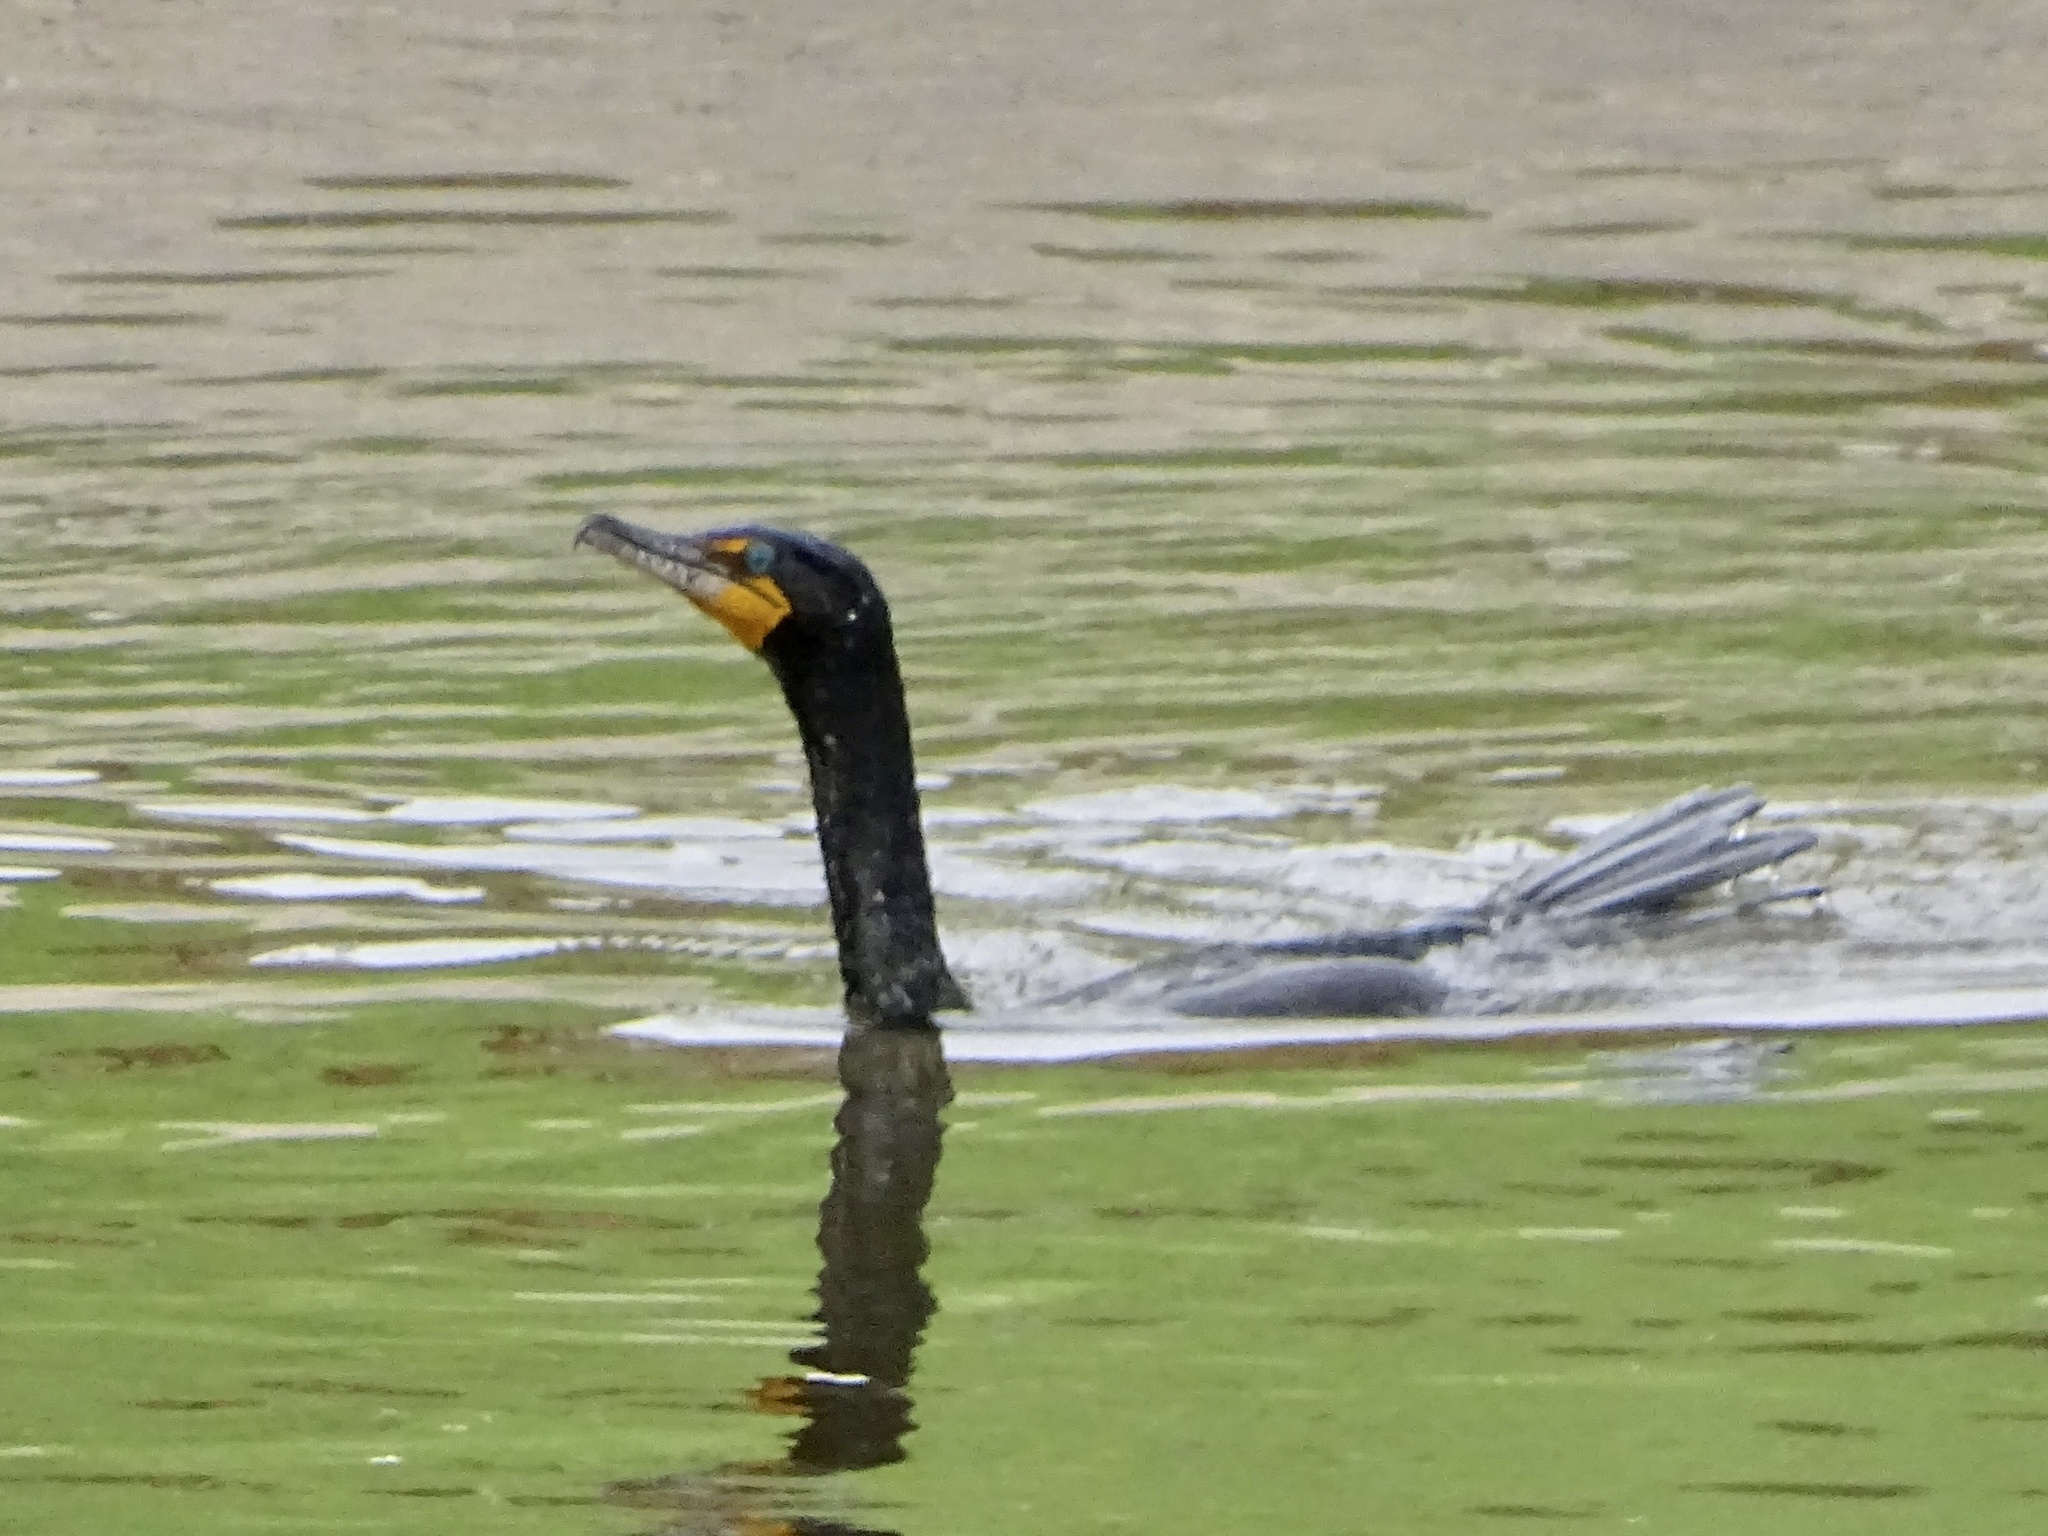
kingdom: Animalia
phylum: Chordata
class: Aves
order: Suliformes
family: Phalacrocoracidae
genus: Phalacrocorax
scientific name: Phalacrocorax auritus
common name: Double-crested cormorant
